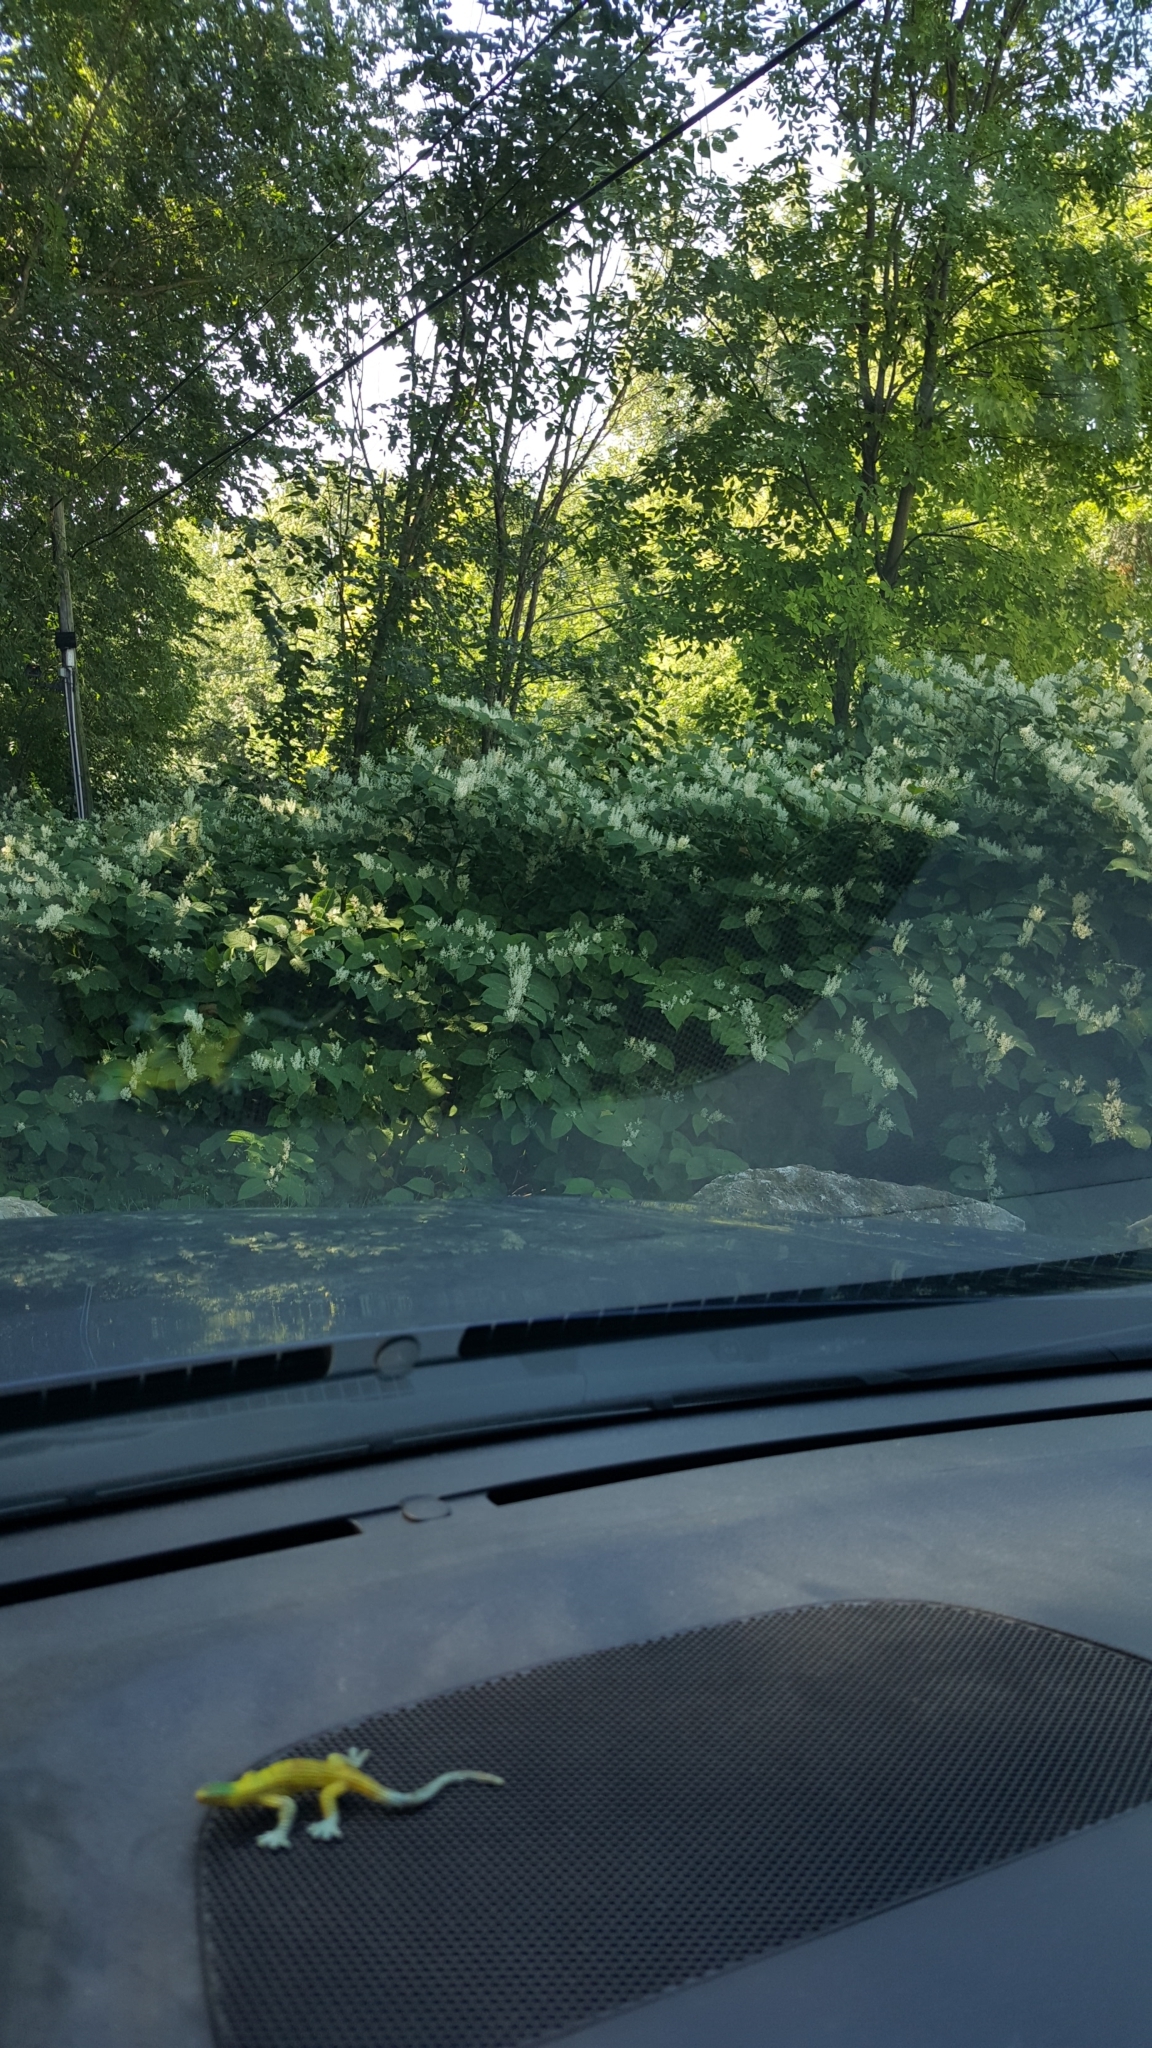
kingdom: Plantae
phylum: Tracheophyta
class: Magnoliopsida
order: Caryophyllales
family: Polygonaceae
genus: Reynoutria
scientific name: Reynoutria japonica
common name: Japanese knotweed
